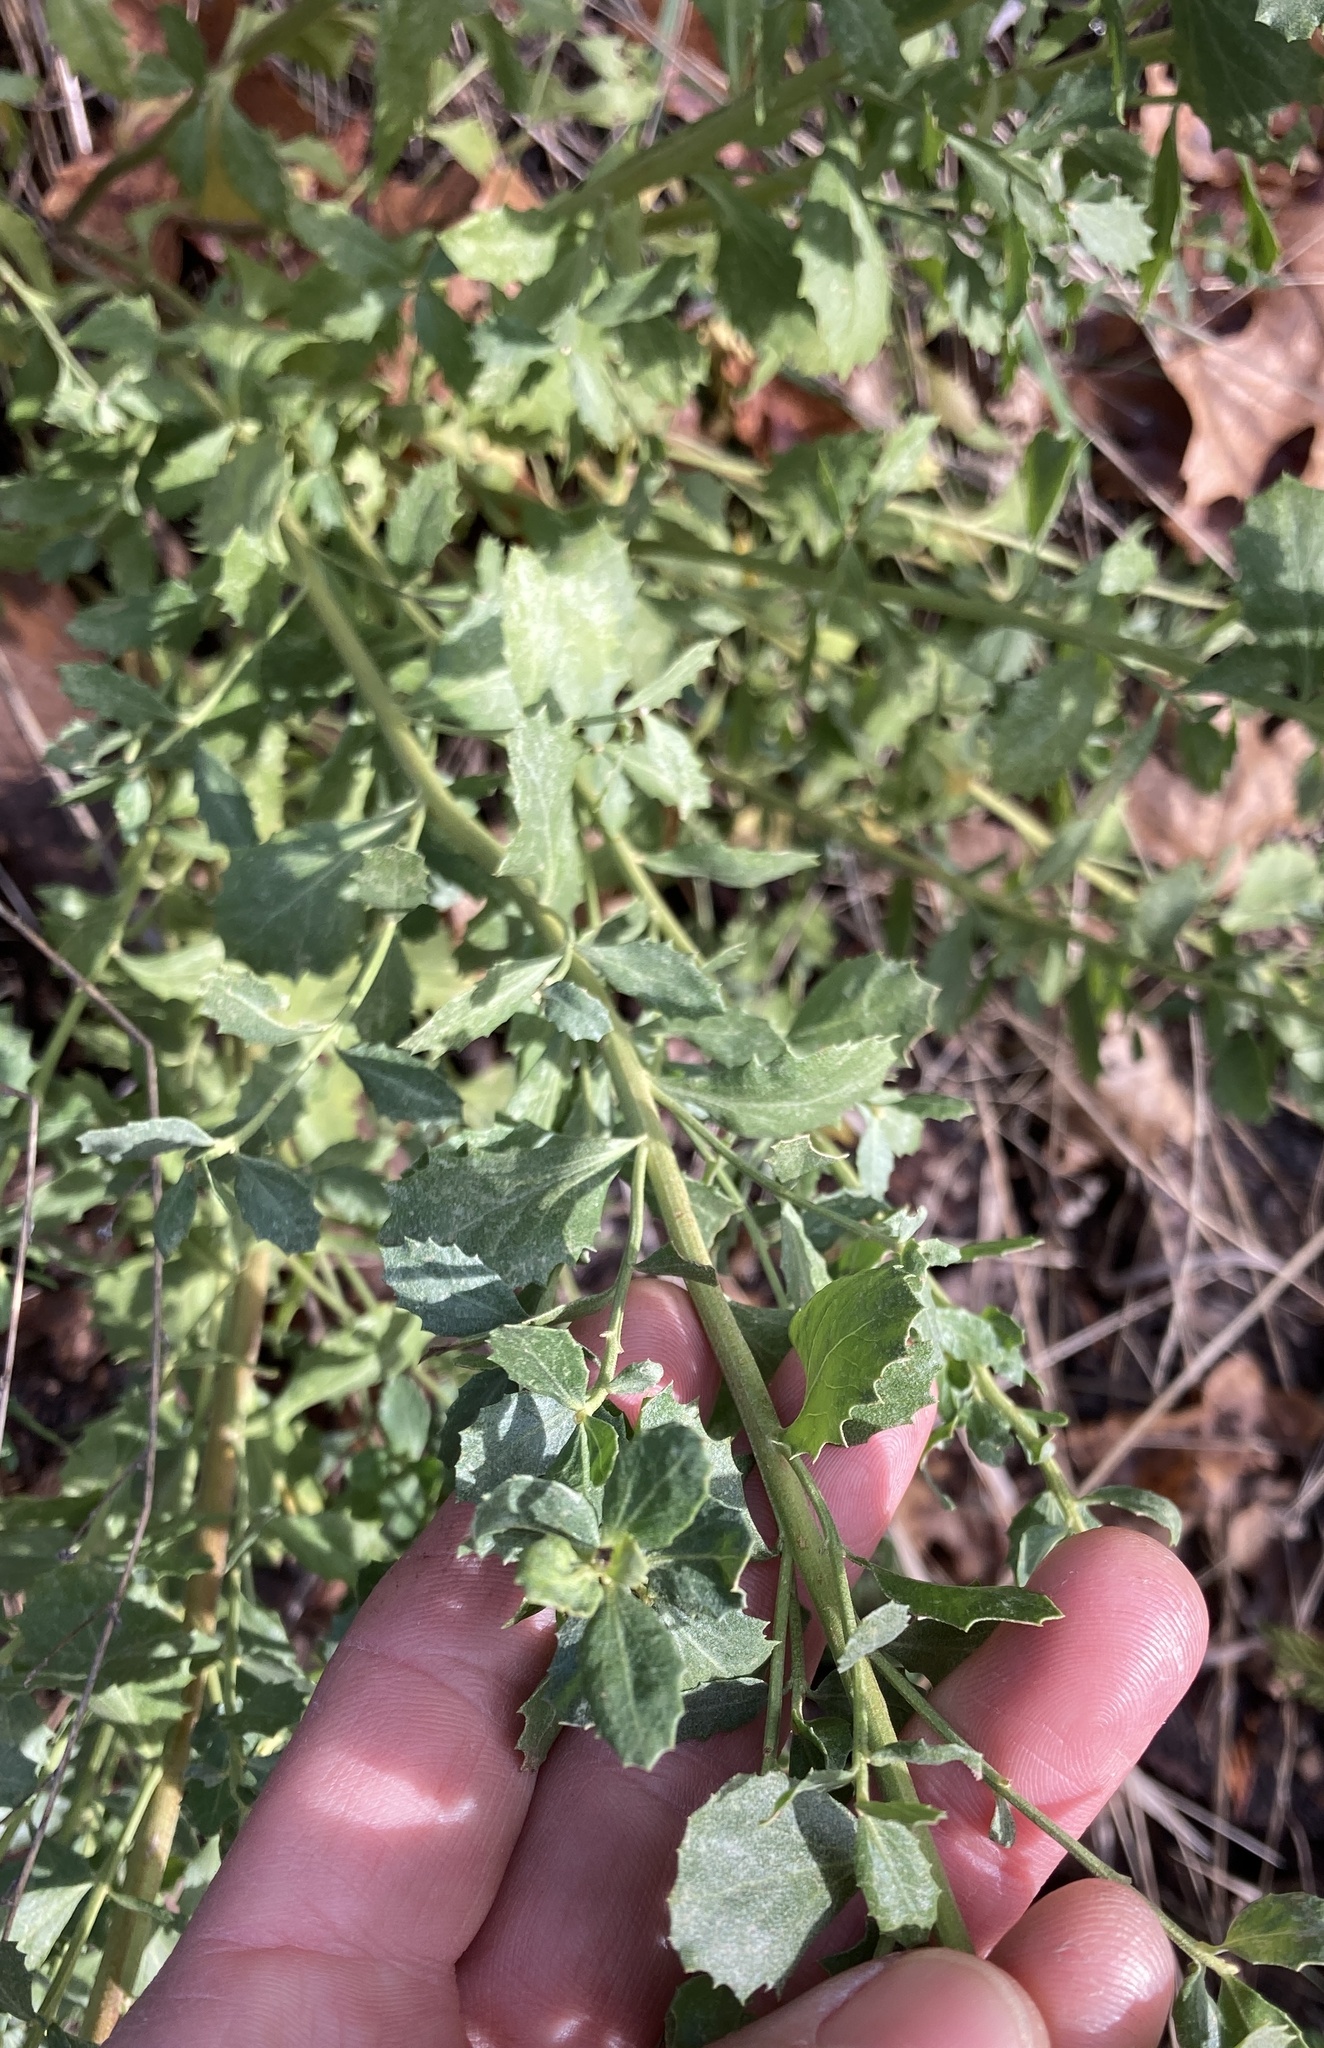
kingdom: Plantae
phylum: Tracheophyta
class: Magnoliopsida
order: Asterales
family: Asteraceae
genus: Baccharis
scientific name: Baccharis pilularis
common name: Coyotebrush
